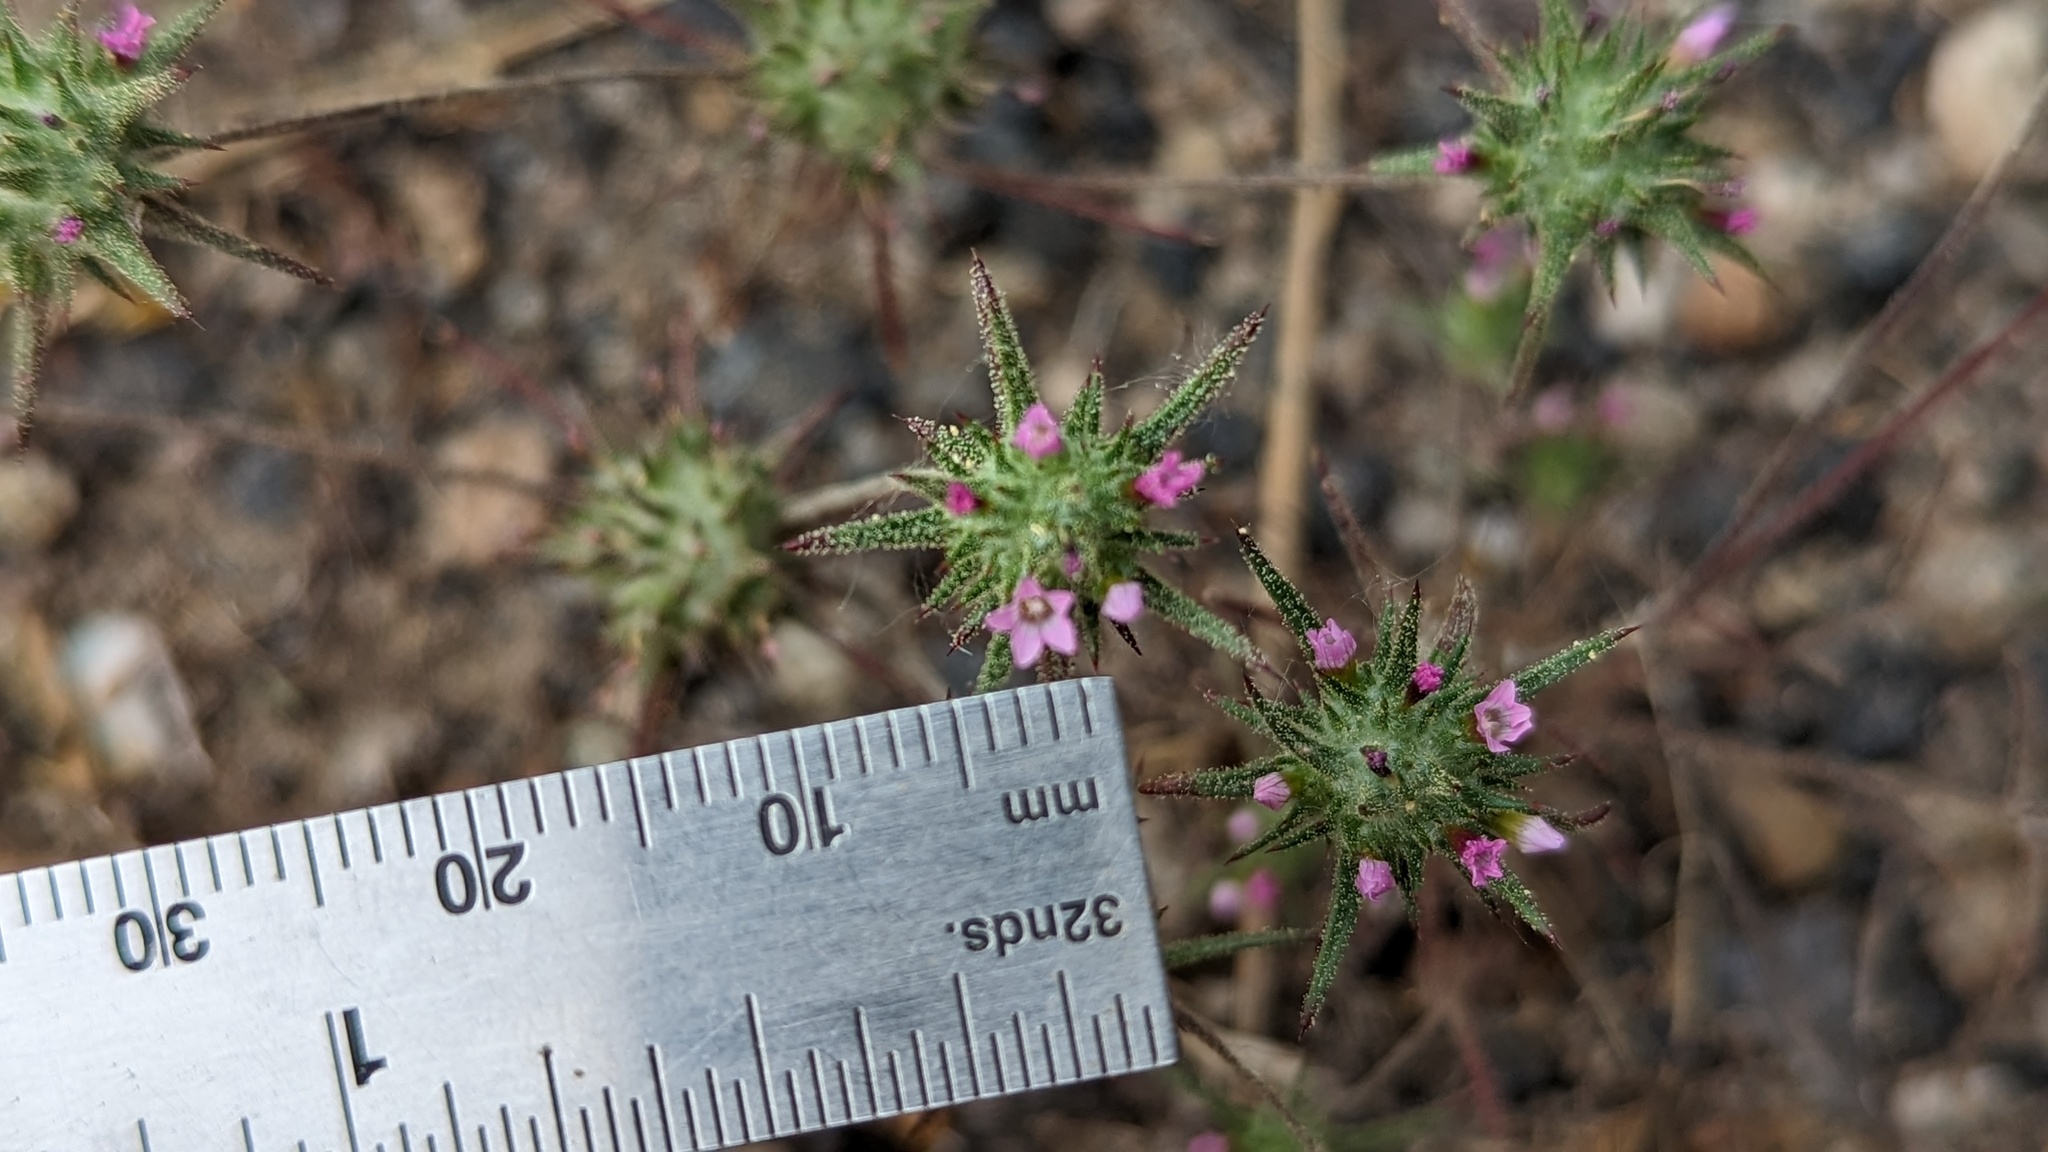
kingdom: Plantae
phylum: Tracheophyta
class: Magnoliopsida
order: Ericales
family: Polemoniaceae
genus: Navarretia
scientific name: Navarretia miwukensis
